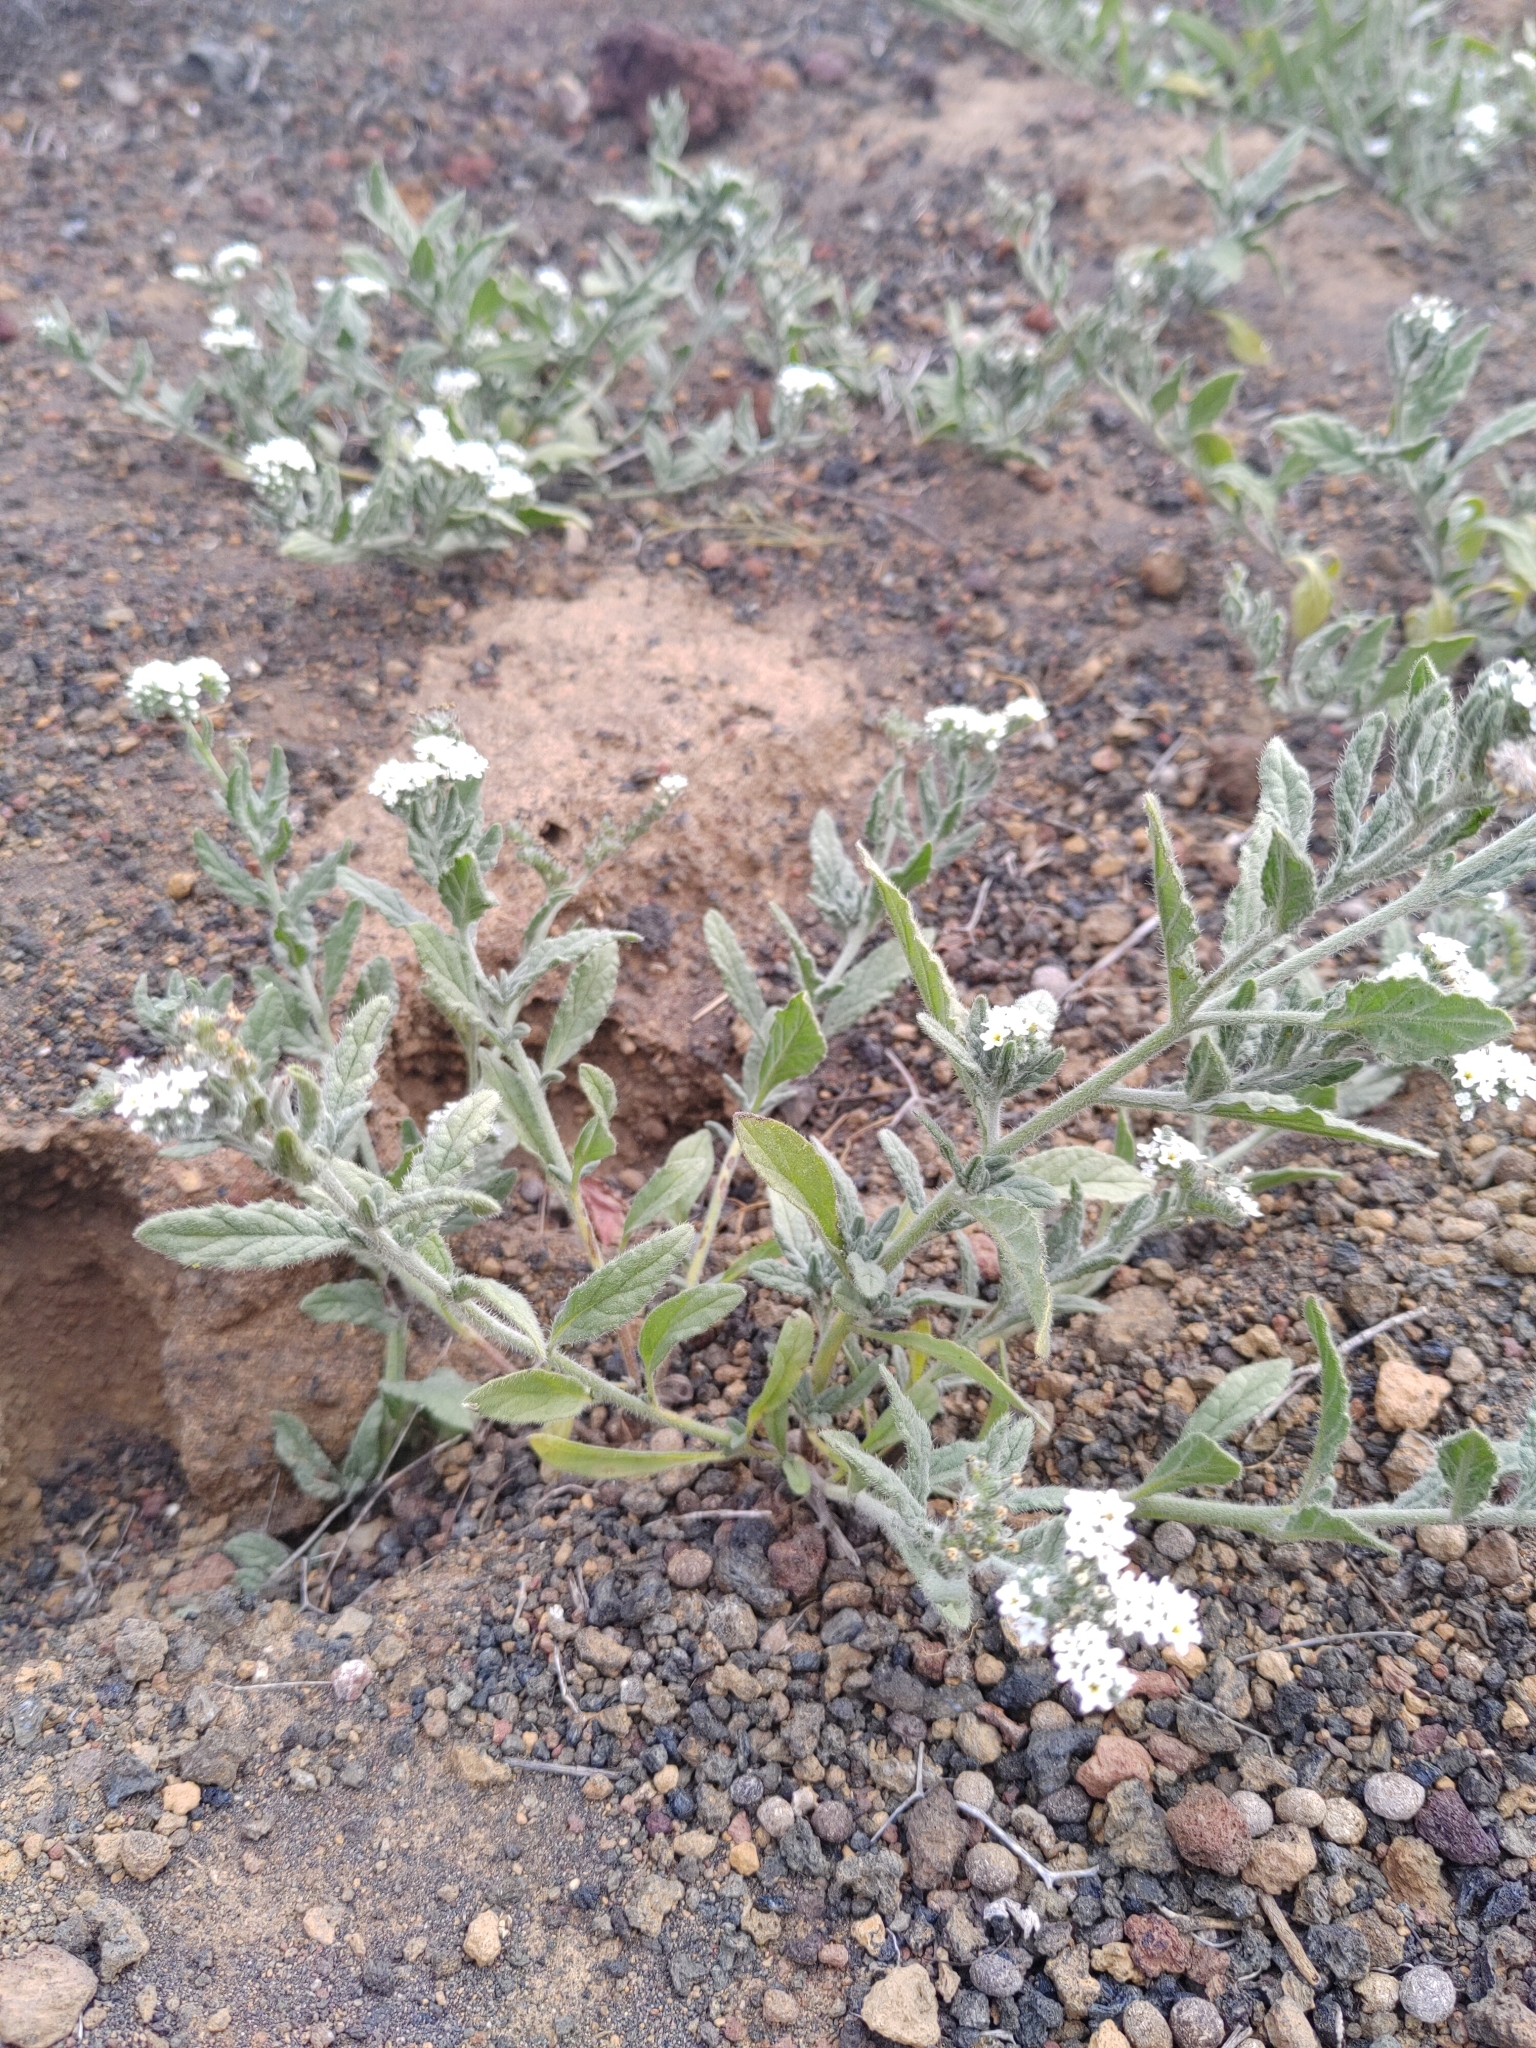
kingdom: Plantae
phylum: Tracheophyta
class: Magnoliopsida
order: Boraginales
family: Heliotropiaceae
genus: Heliotropium
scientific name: Heliotropium ramosissimum
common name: Wavy heliotrope
